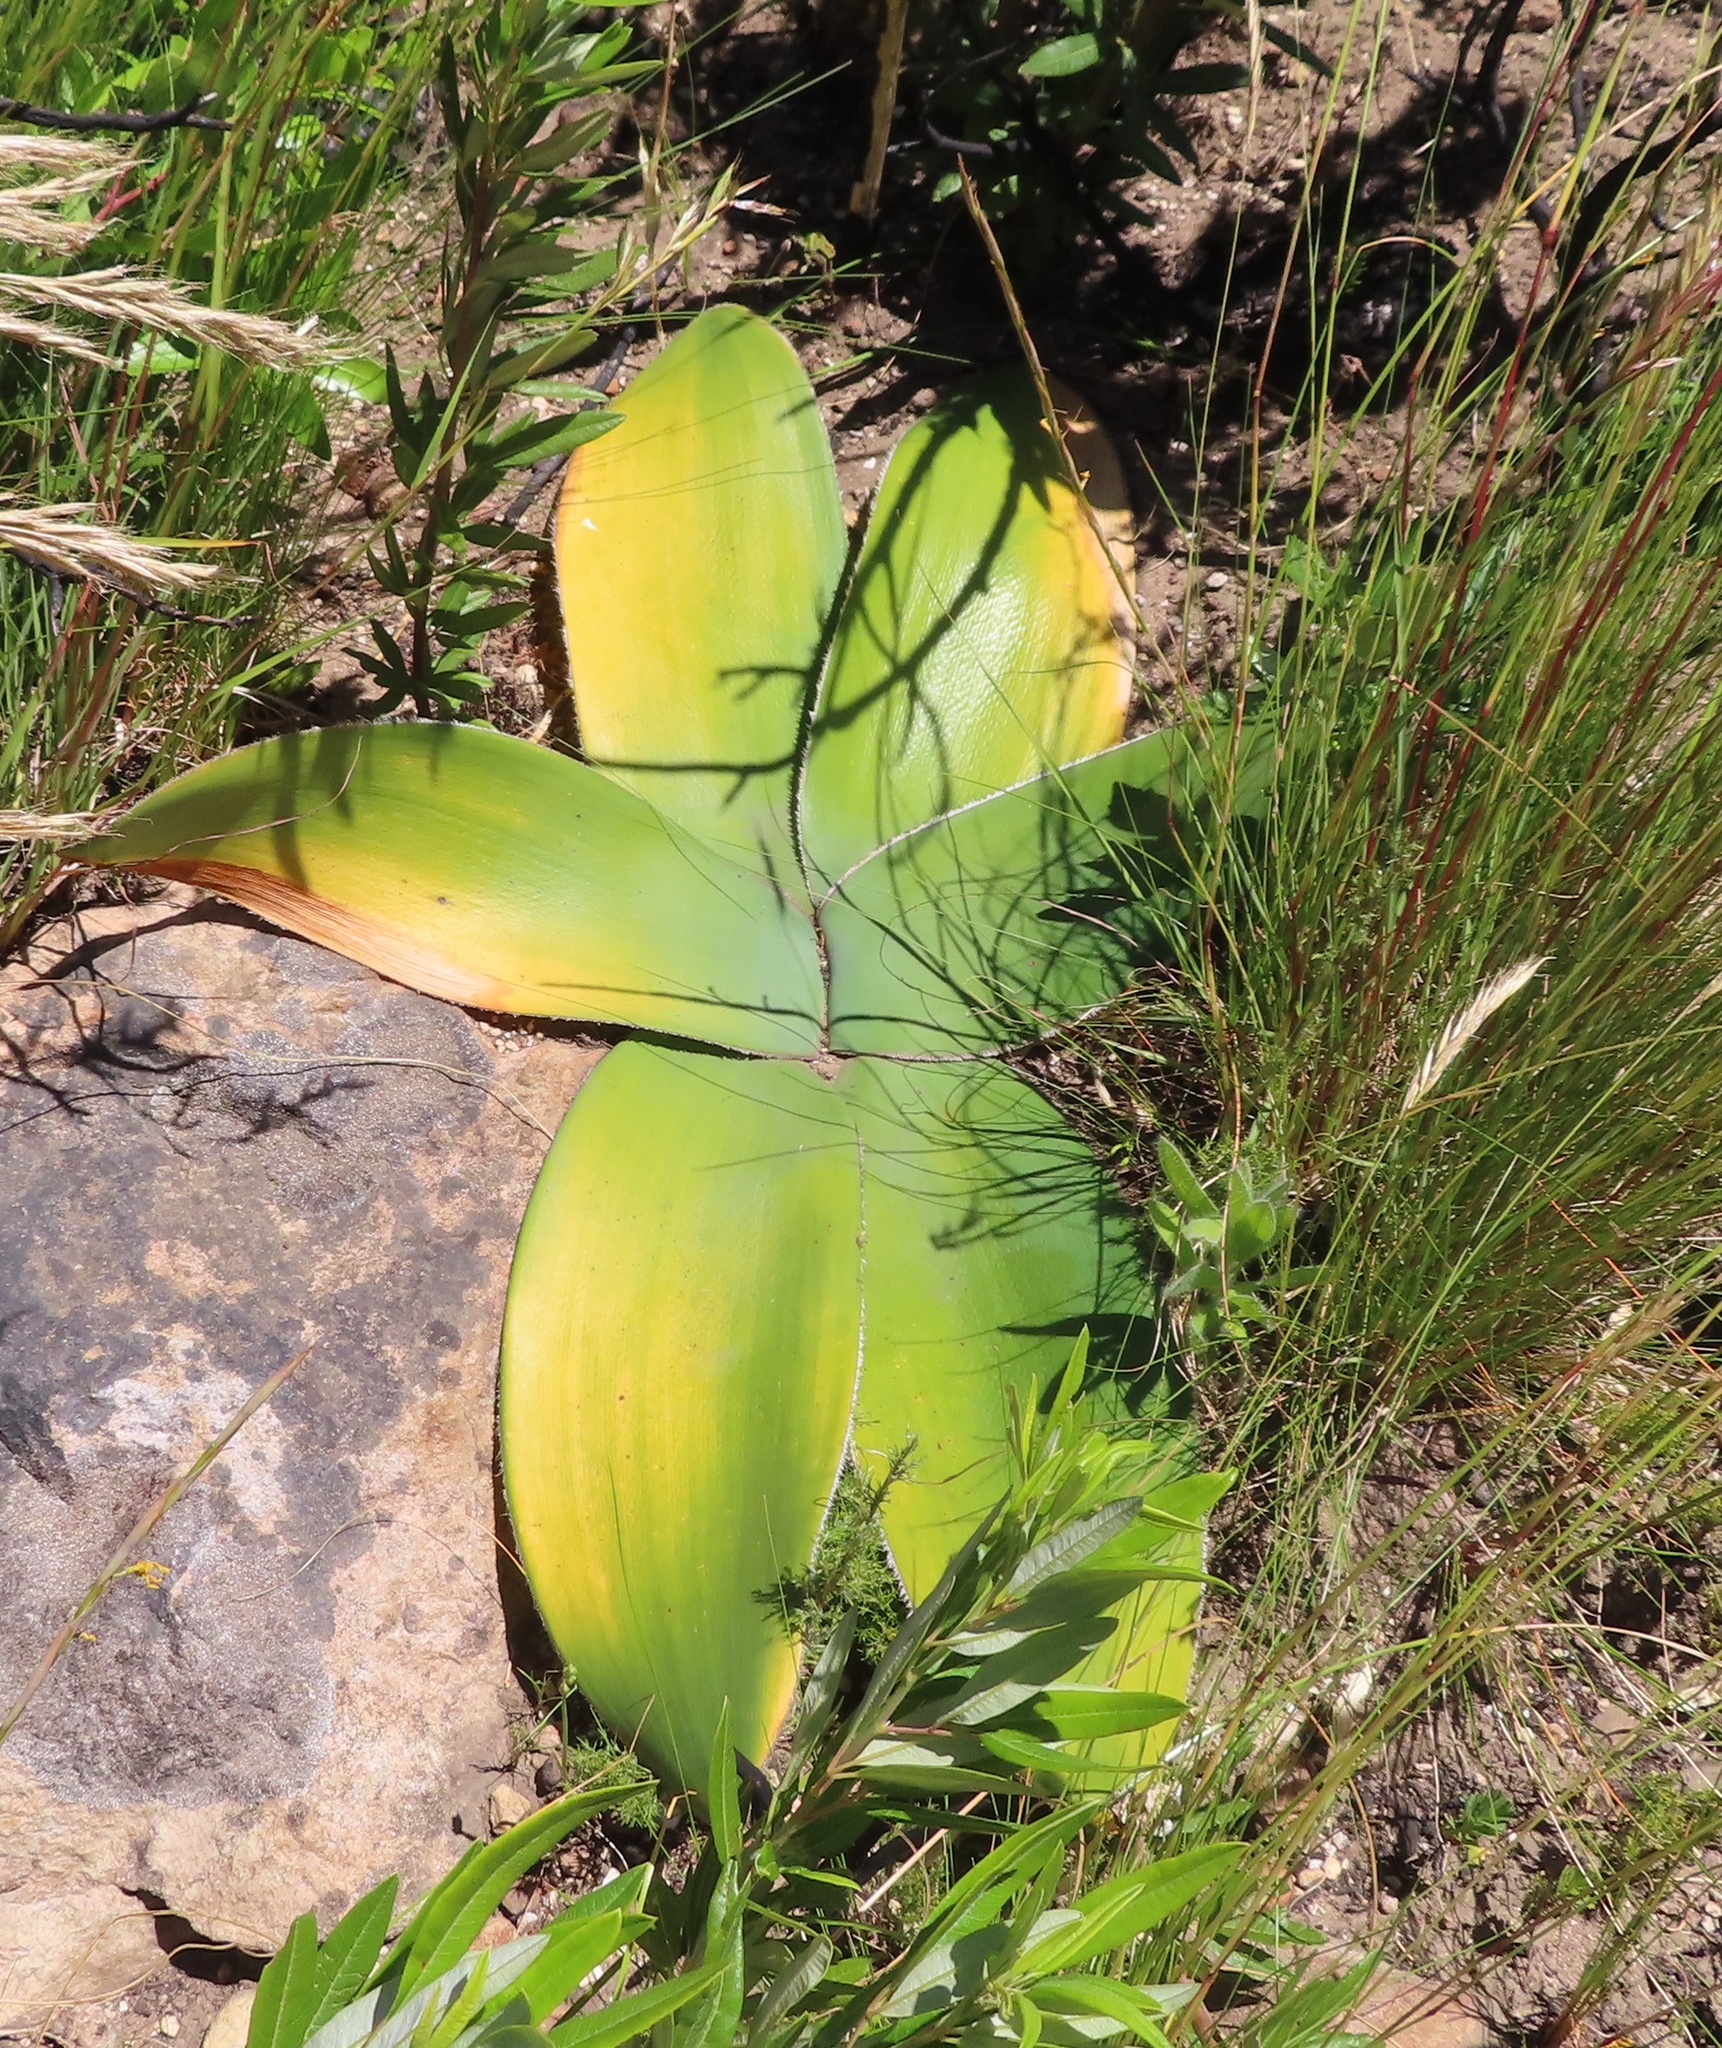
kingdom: Plantae
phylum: Tracheophyta
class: Liliopsida
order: Asparagales
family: Amaryllidaceae
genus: Crossyne
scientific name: Crossyne guttata
